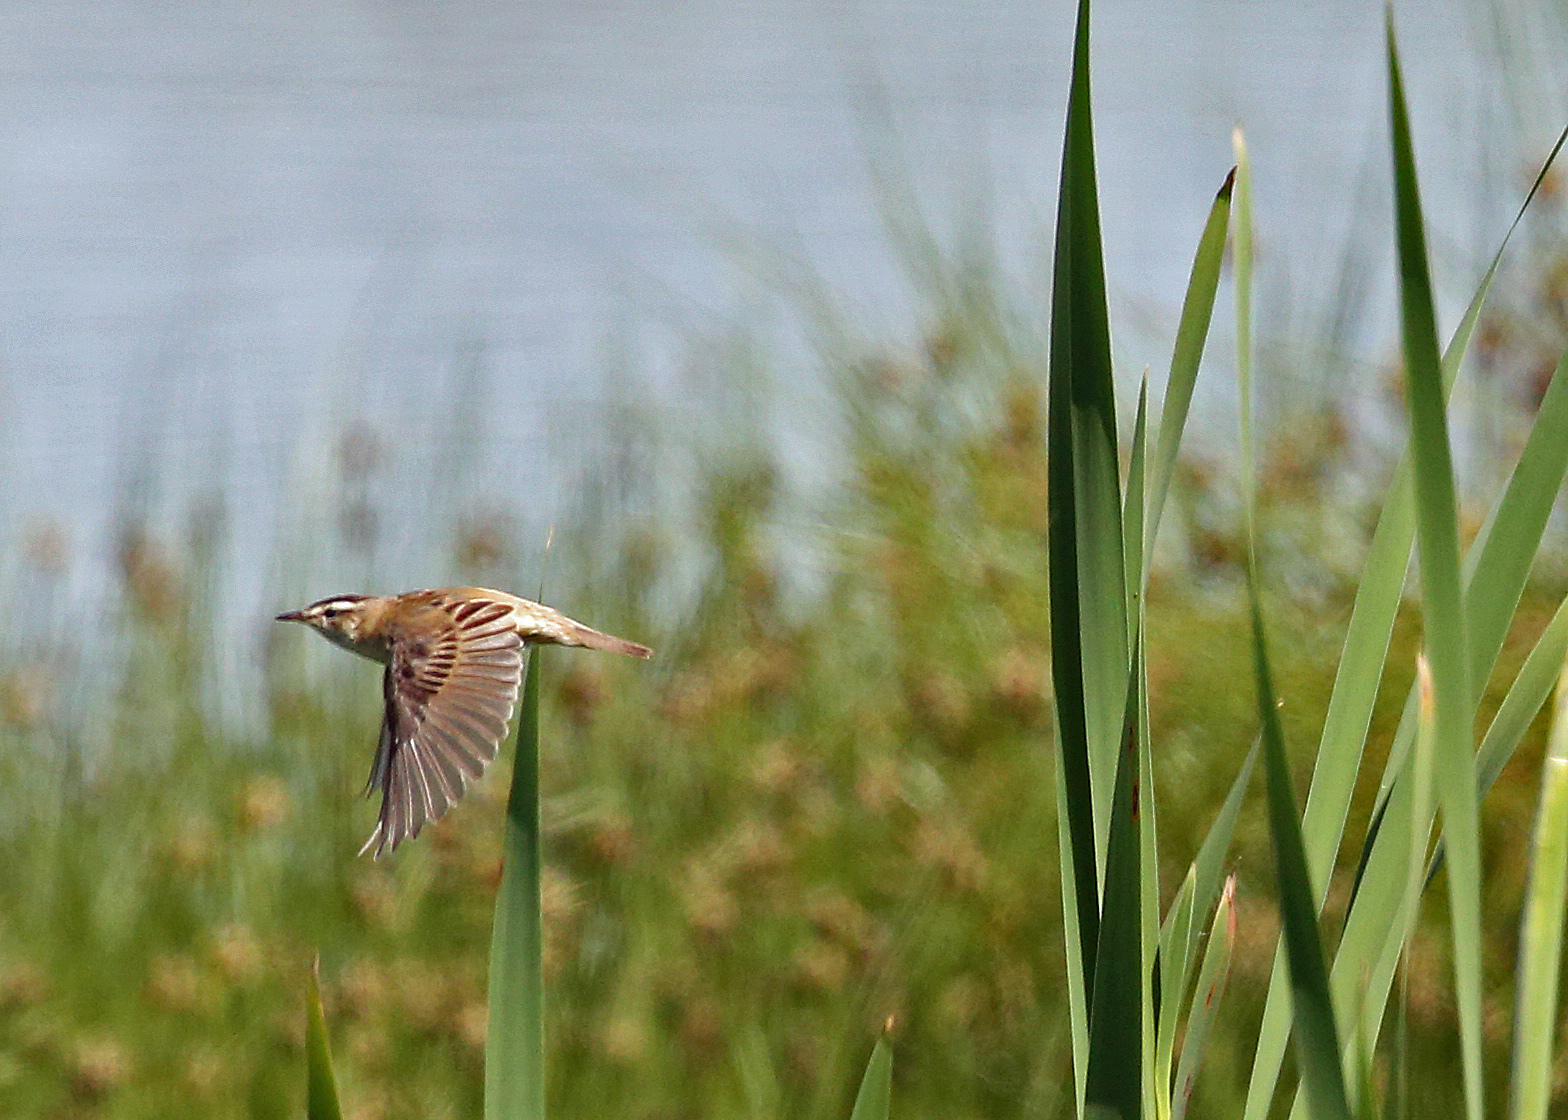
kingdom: Animalia
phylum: Chordata
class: Aves
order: Passeriformes
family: Acrocephalidae
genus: Acrocephalus
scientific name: Acrocephalus schoenobaenus
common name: Sedge warbler
